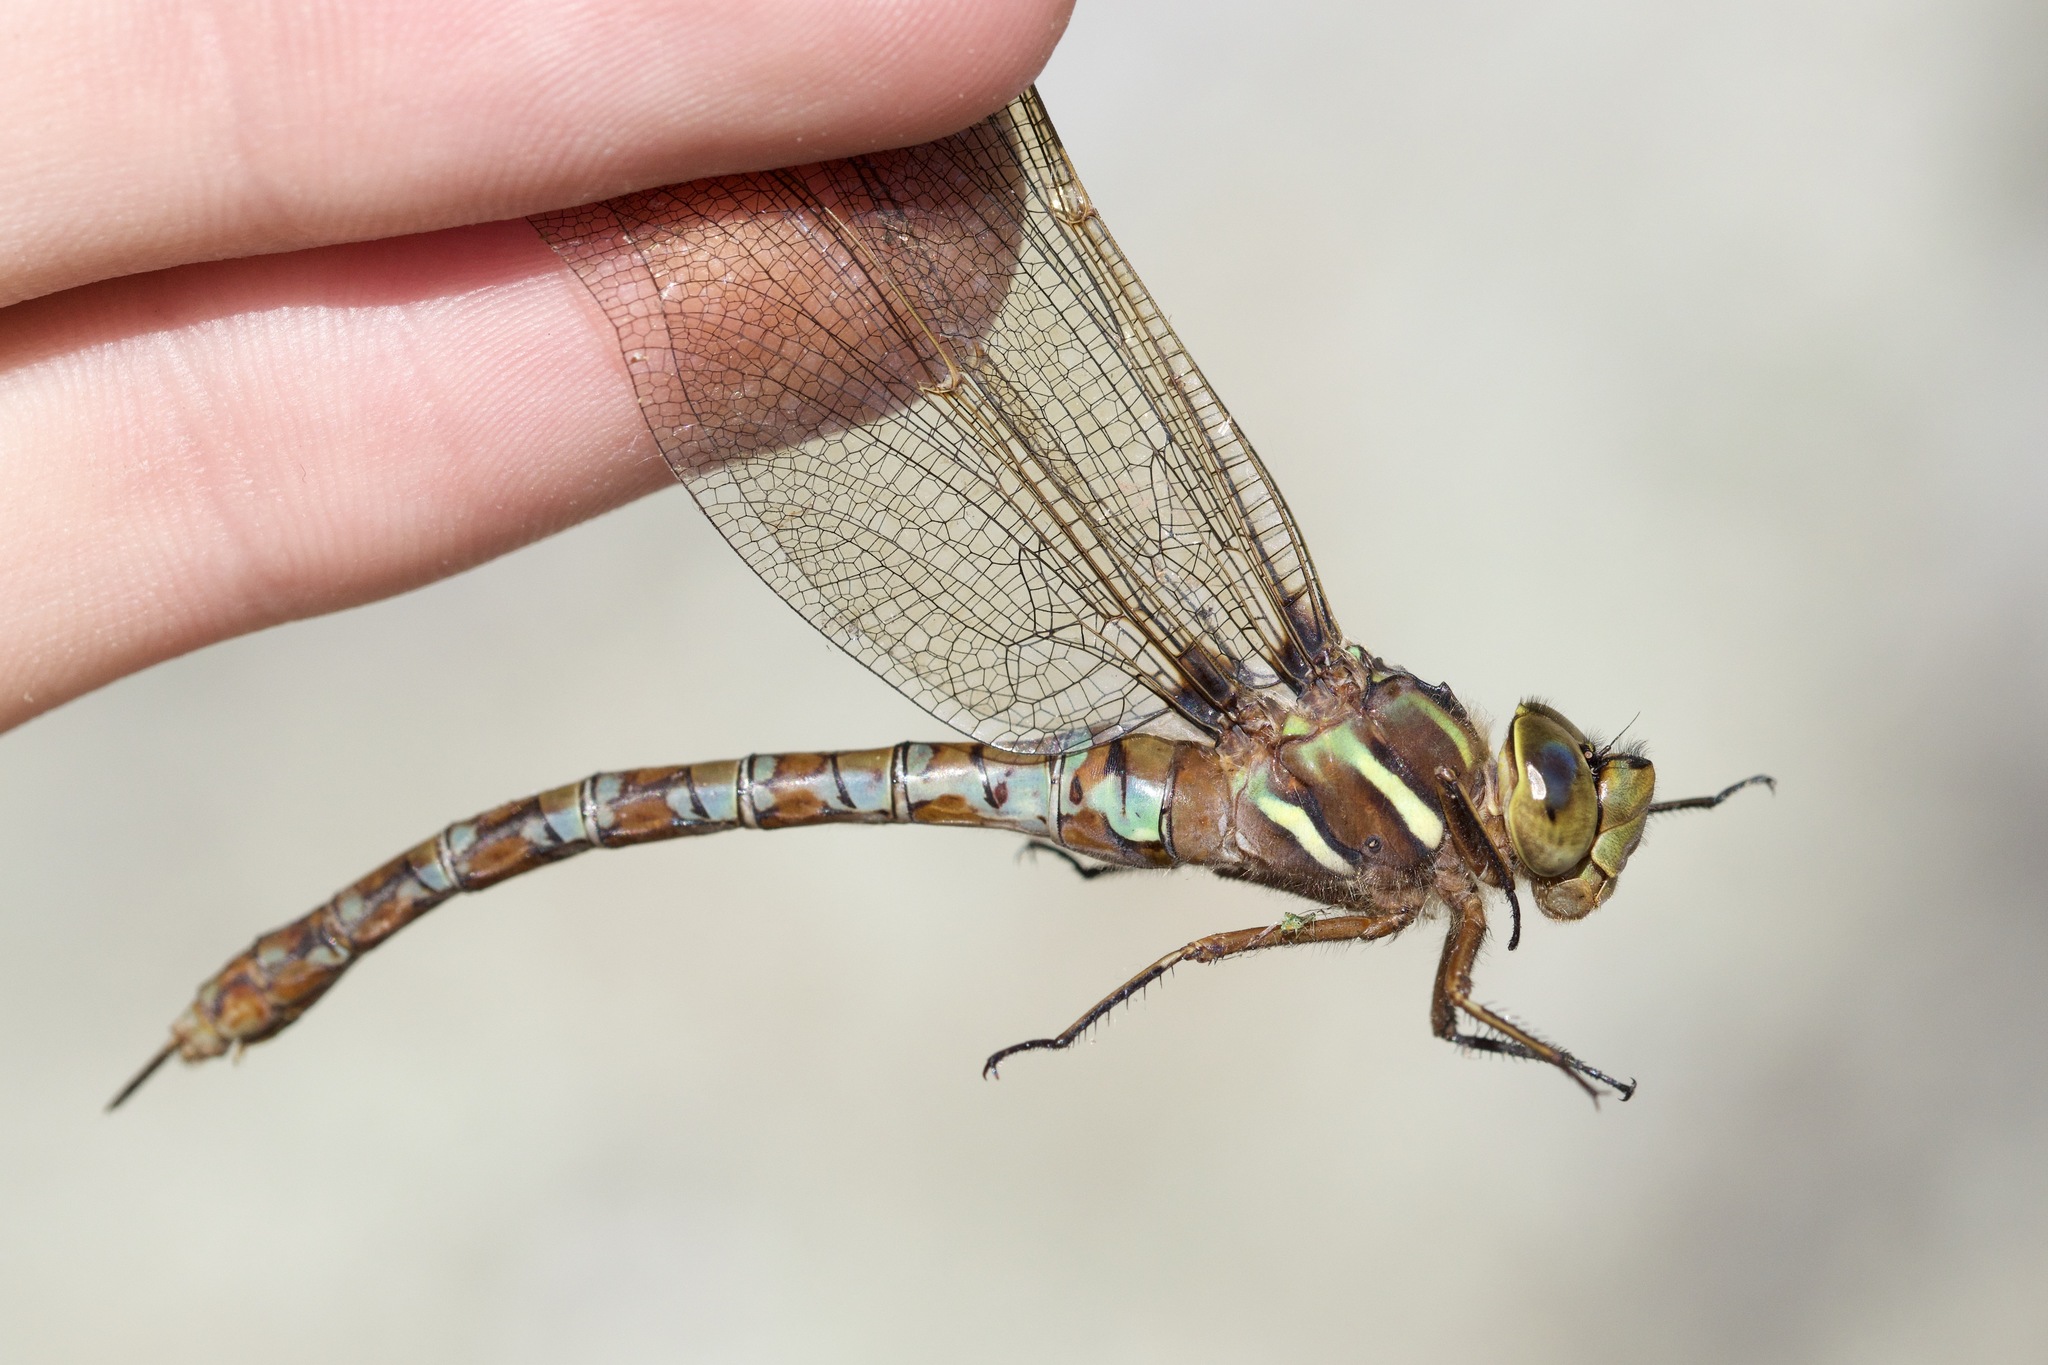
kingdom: Animalia
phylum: Arthropoda
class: Insecta
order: Odonata
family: Aeshnidae
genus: Basiaeschna
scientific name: Basiaeschna janata
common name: Springtime darner
